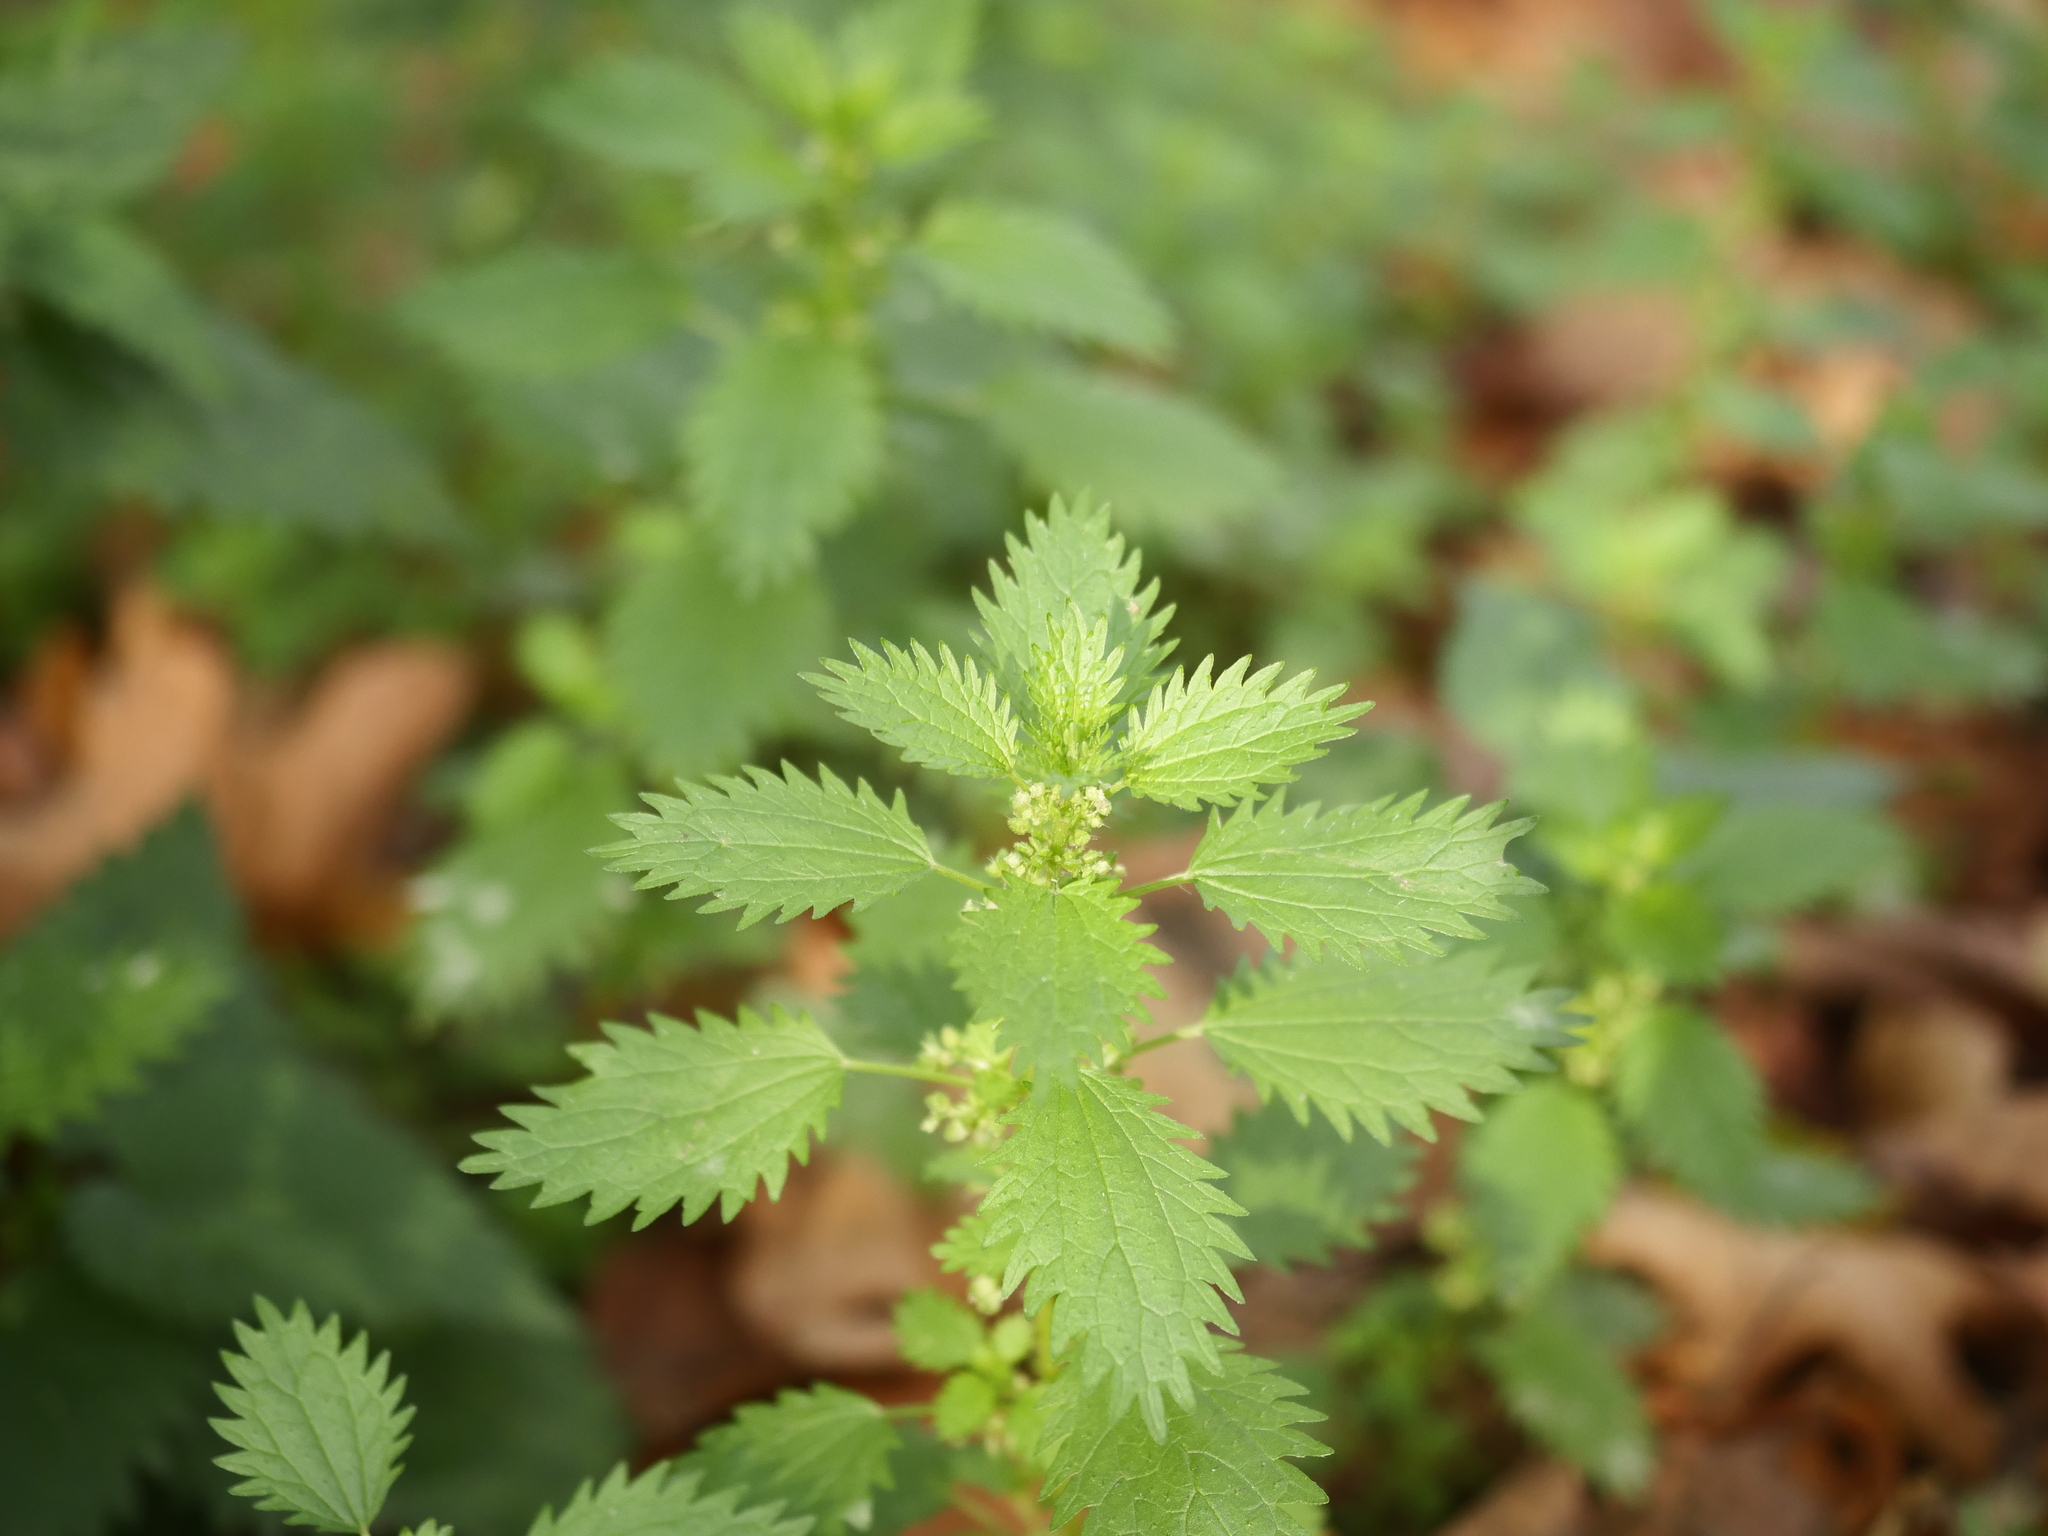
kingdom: Plantae
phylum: Tracheophyta
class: Magnoliopsida
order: Rosales
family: Urticaceae
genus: Urtica
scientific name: Urtica urens
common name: Dwarf nettle
